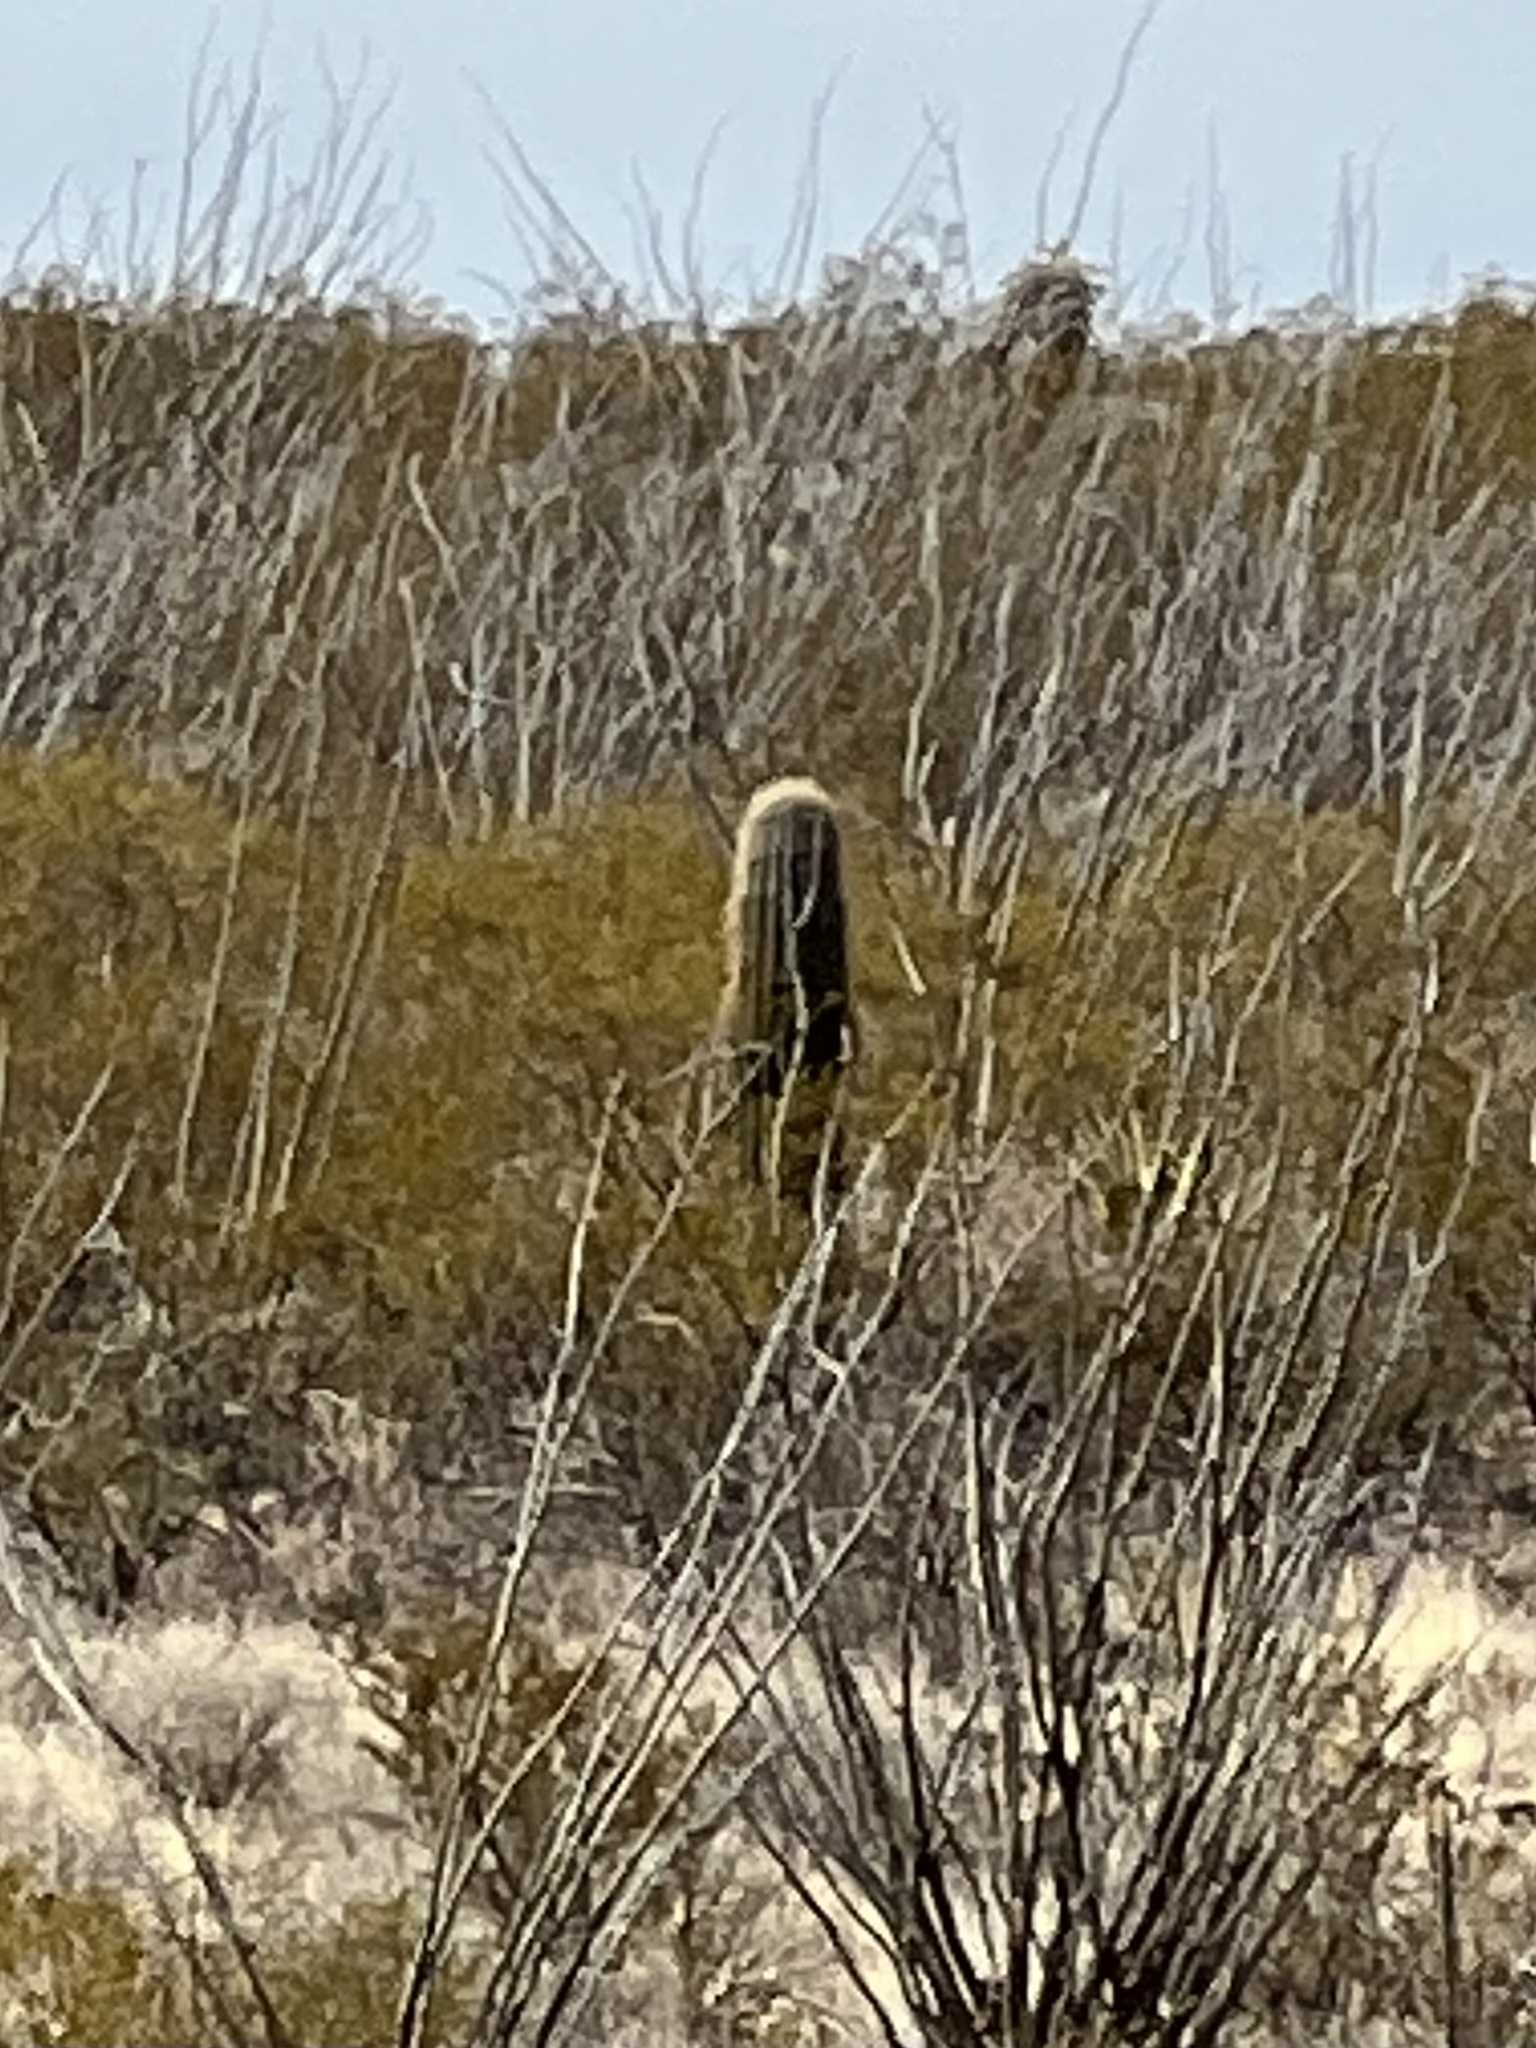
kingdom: Plantae
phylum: Tracheophyta
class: Magnoliopsida
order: Caryophyllales
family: Cactaceae
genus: Carnegiea
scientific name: Carnegiea gigantea
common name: Saguaro
